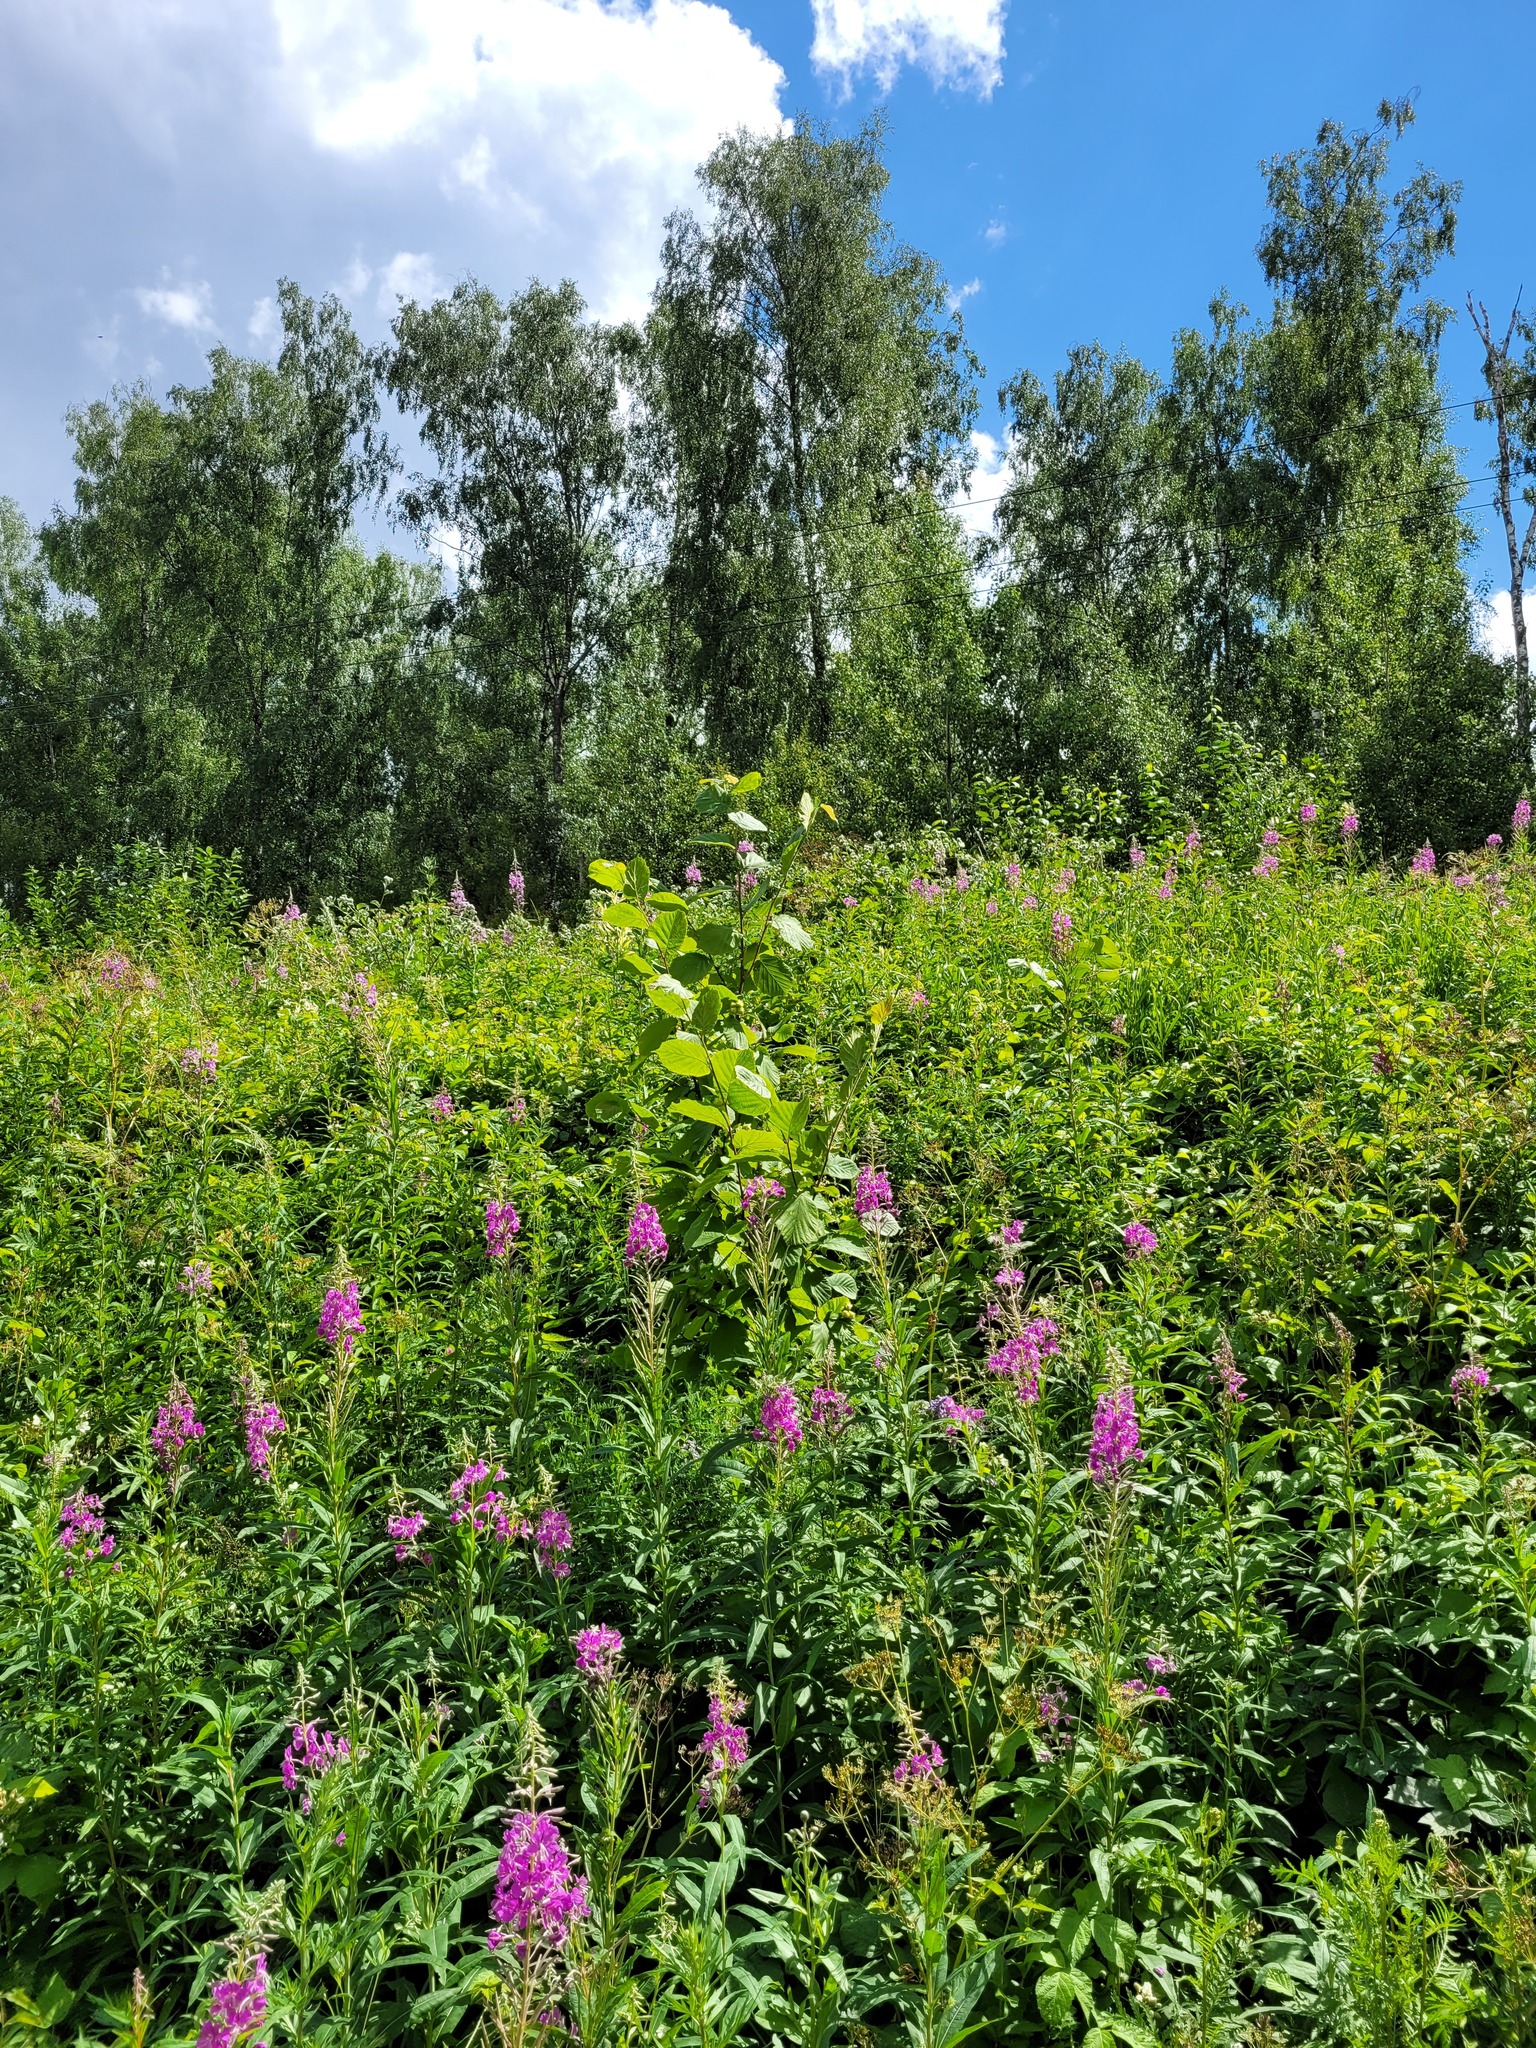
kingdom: Plantae
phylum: Tracheophyta
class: Magnoliopsida
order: Fagales
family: Betulaceae
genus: Corylus
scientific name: Corylus avellana
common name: European hazel
